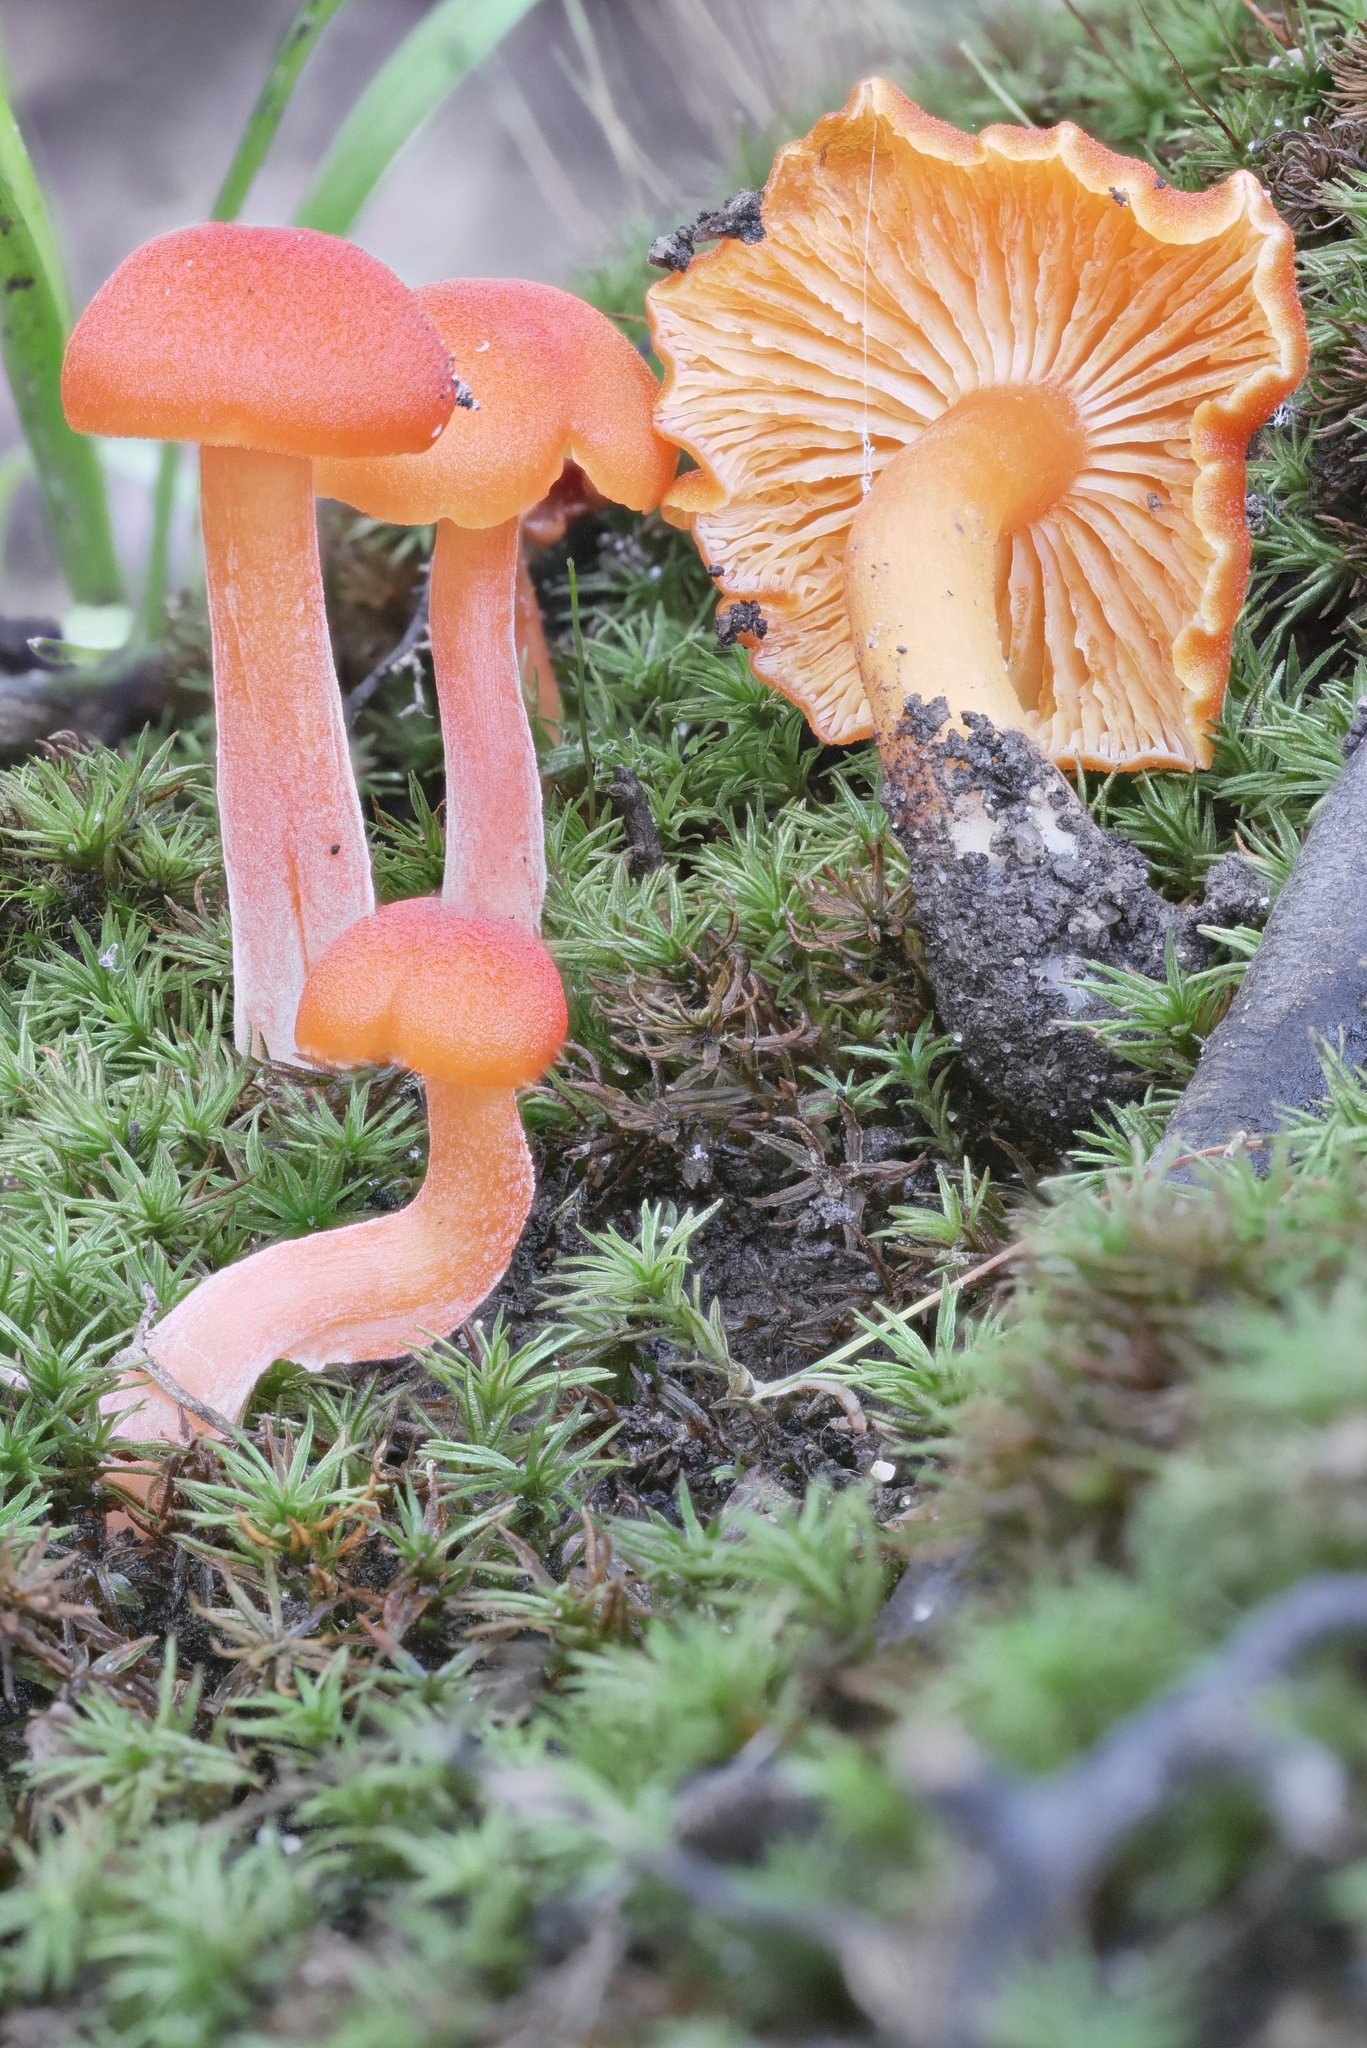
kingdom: Fungi
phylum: Basidiomycota
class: Agaricomycetes
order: Agaricales
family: Hygrophoraceae
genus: Hygrocybe
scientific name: Hygrocybe miniata
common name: Vermilion waxcap
